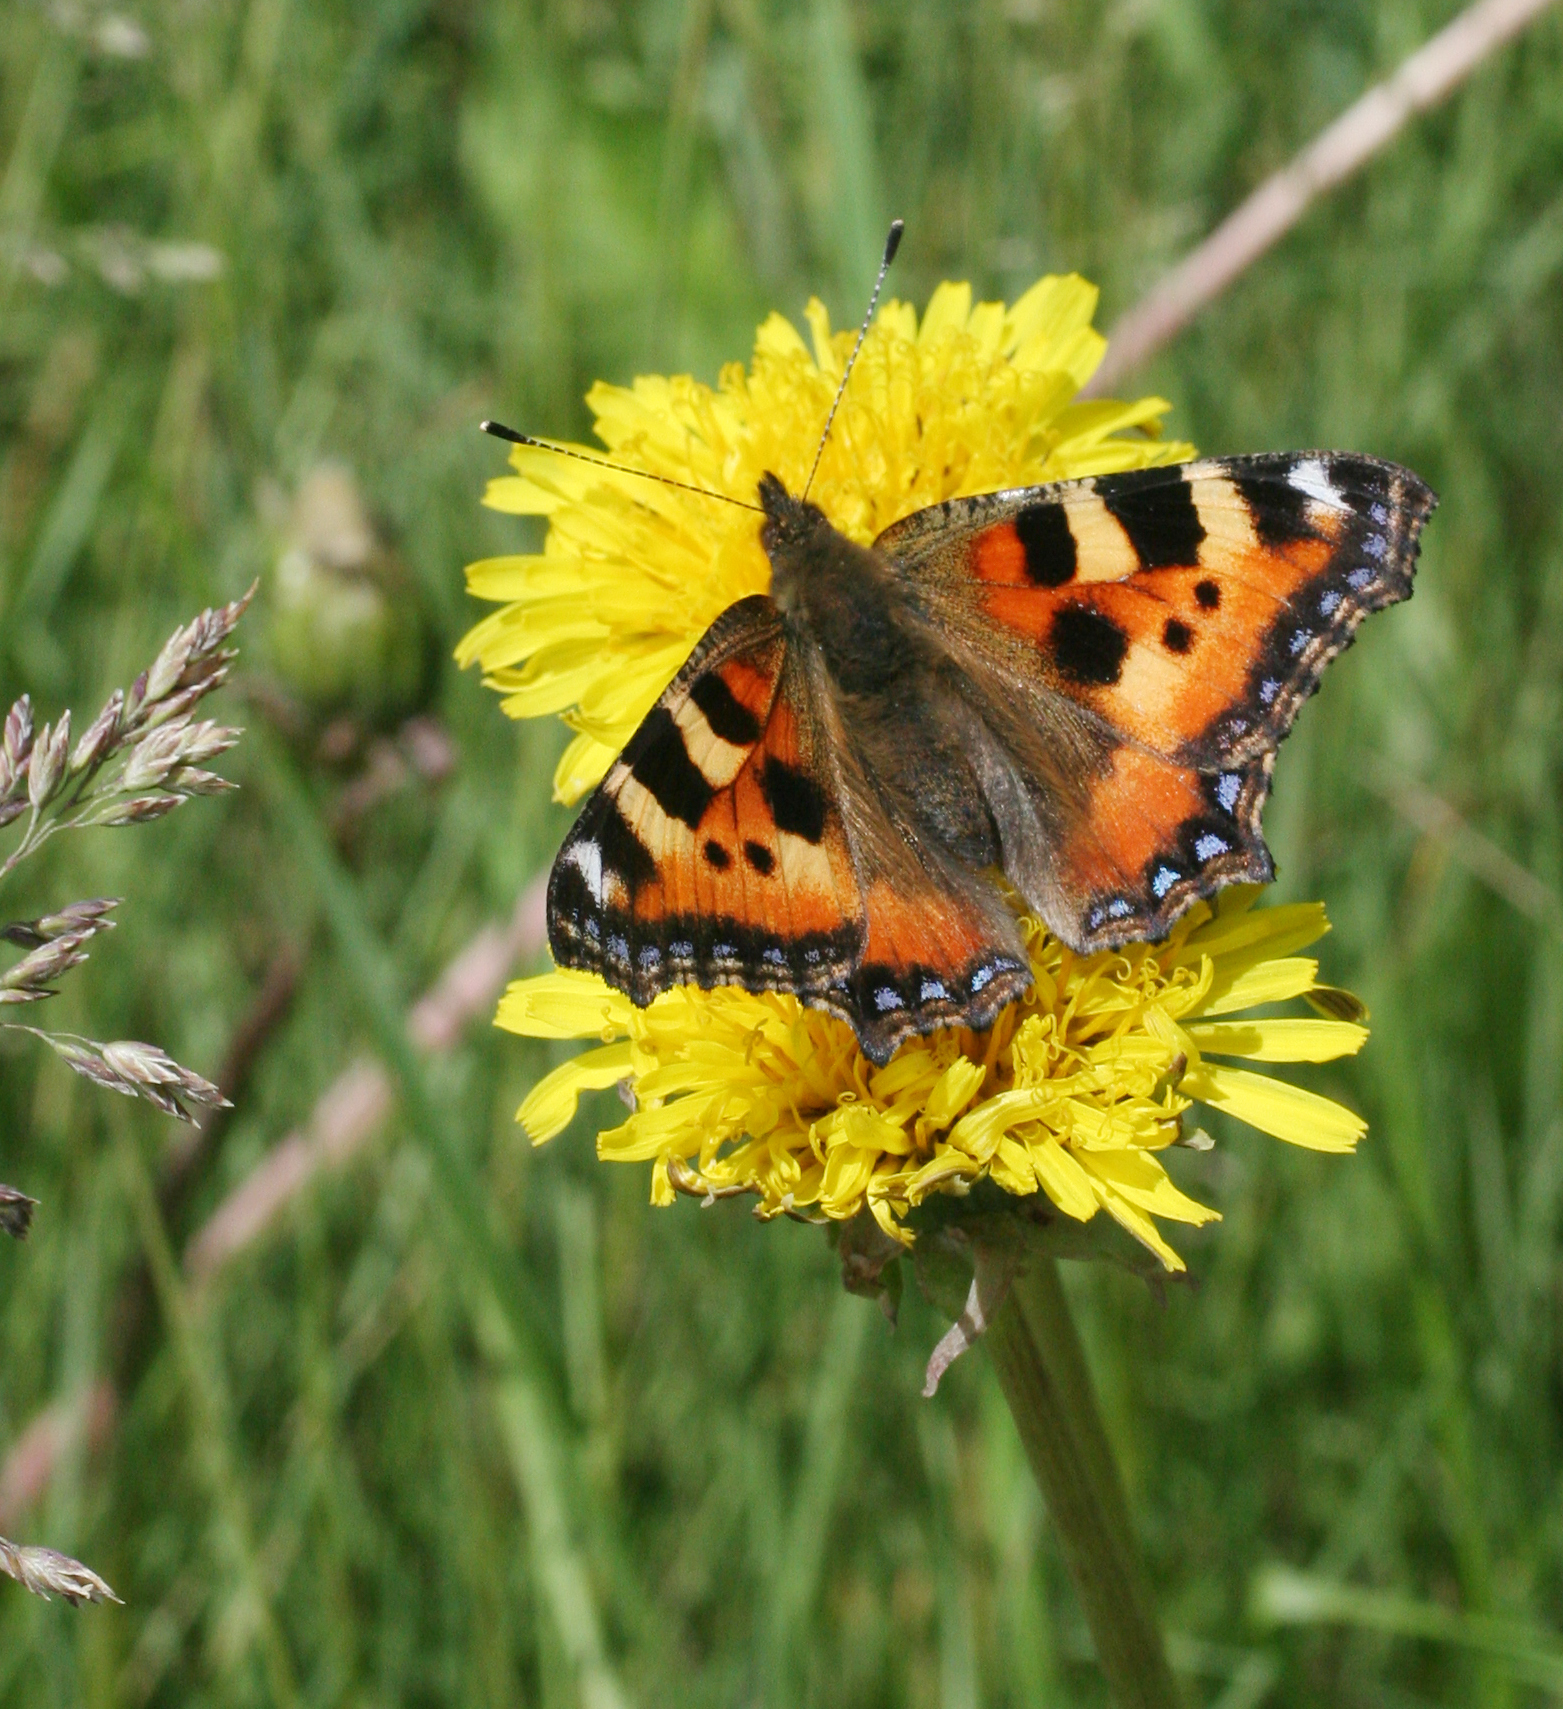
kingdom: Animalia
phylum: Arthropoda
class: Insecta
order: Lepidoptera
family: Nymphalidae
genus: Aglais
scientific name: Aglais urticae
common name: Small tortoiseshell
